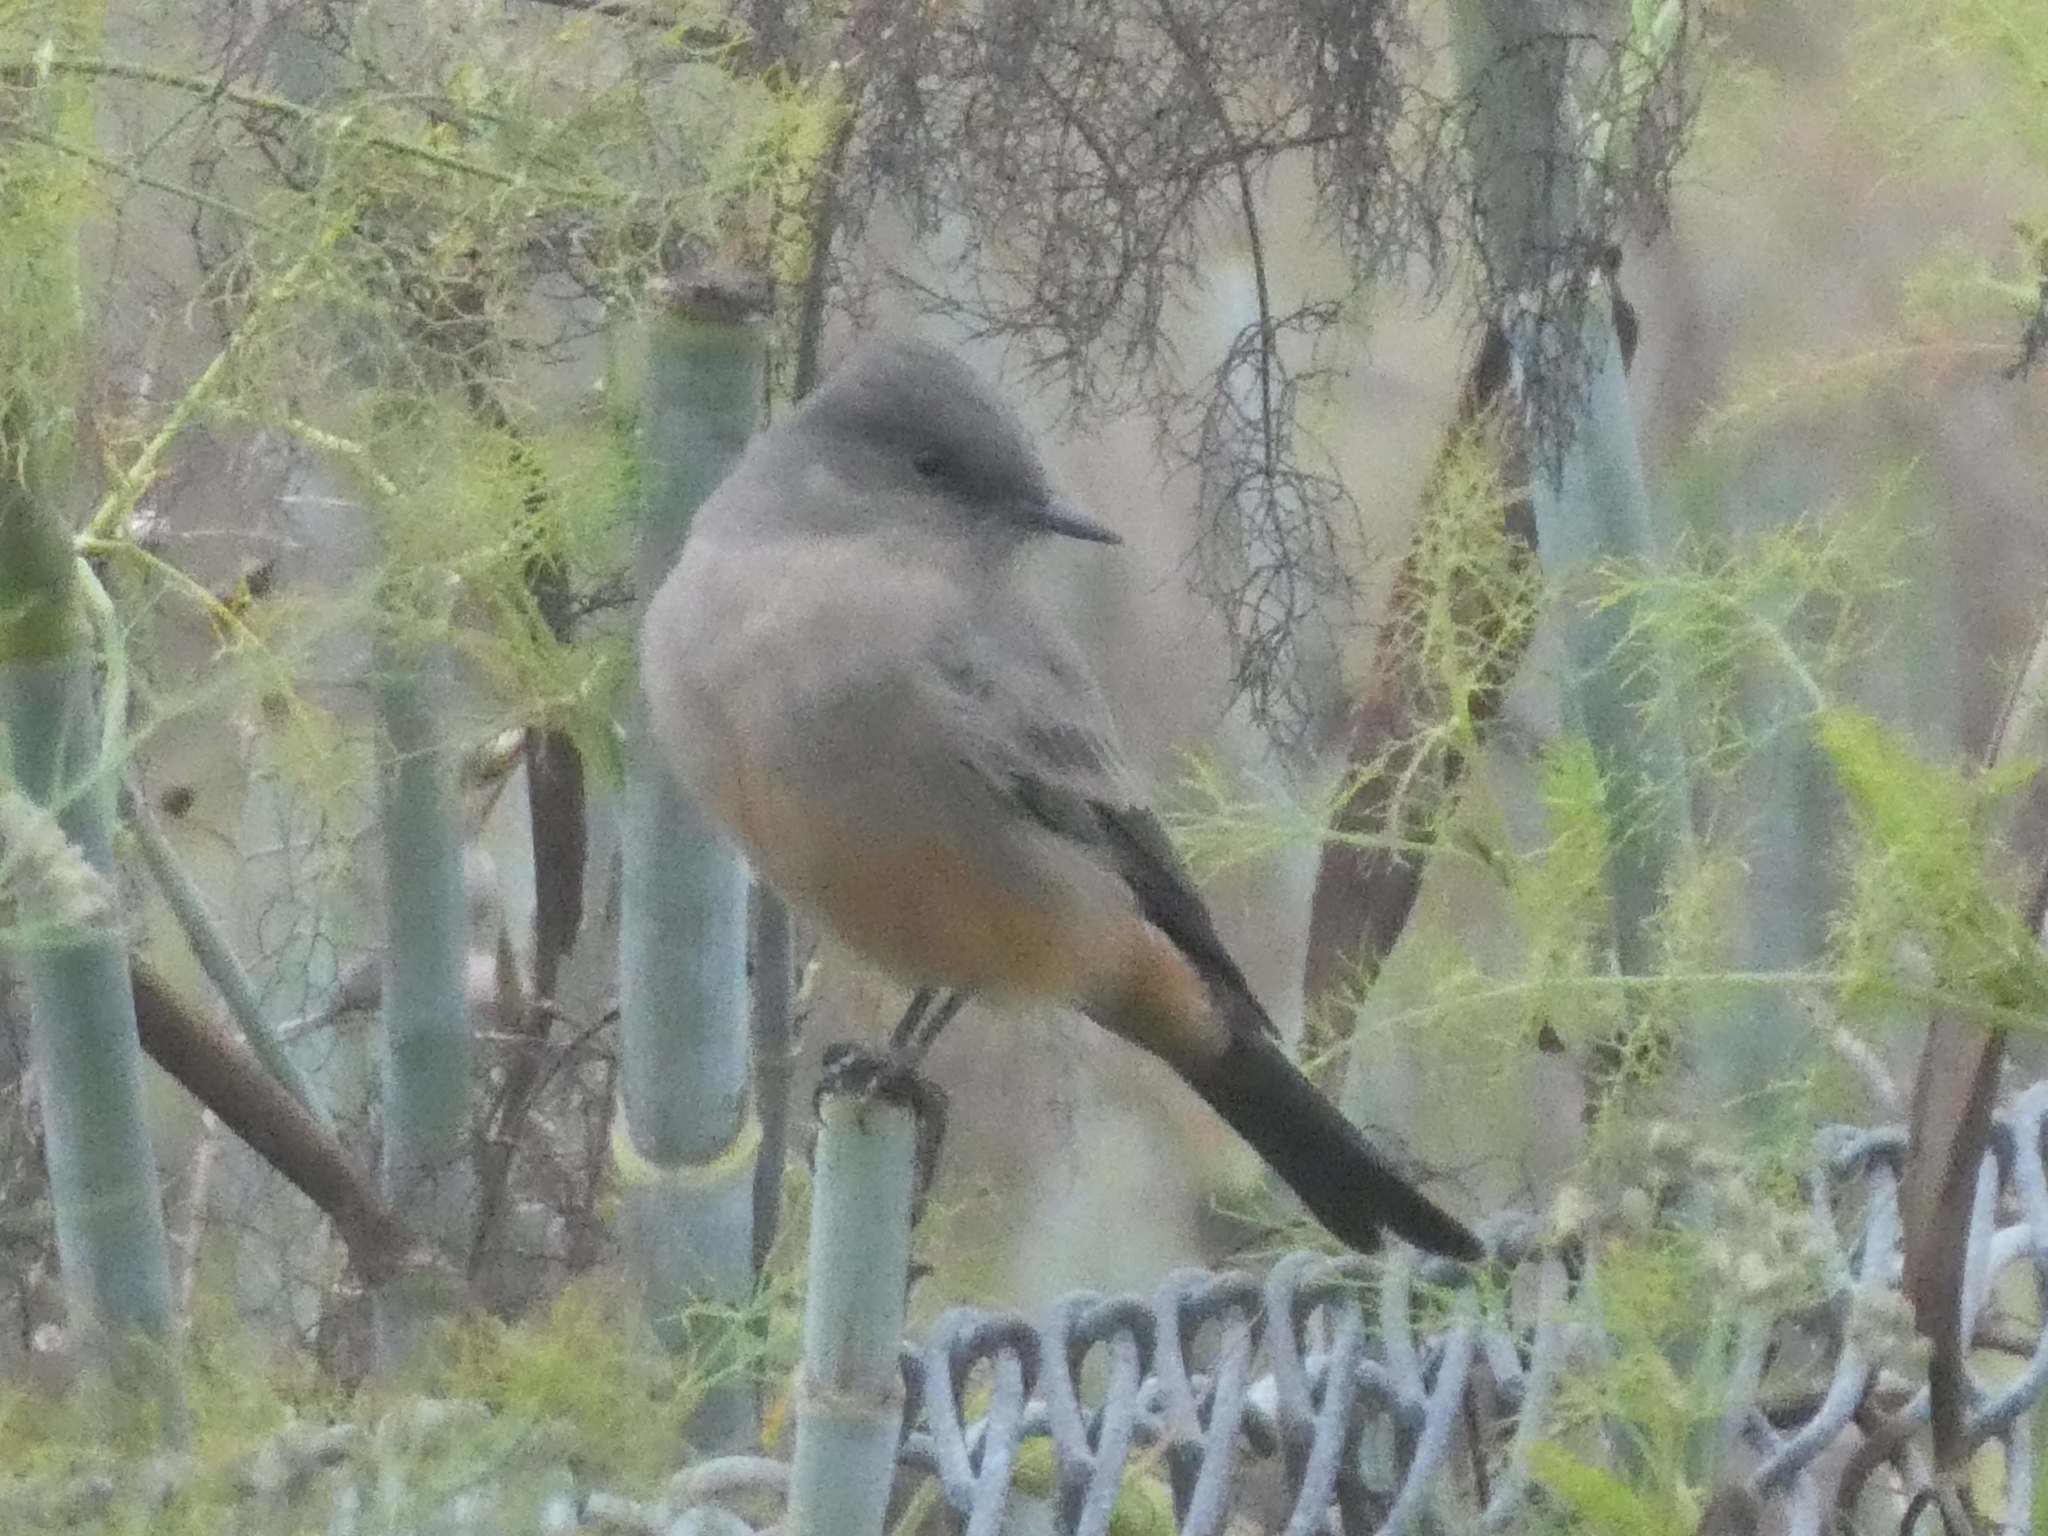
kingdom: Animalia
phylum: Chordata
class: Aves
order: Passeriformes
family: Tyrannidae
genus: Sayornis
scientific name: Sayornis saya
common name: Say's phoebe
